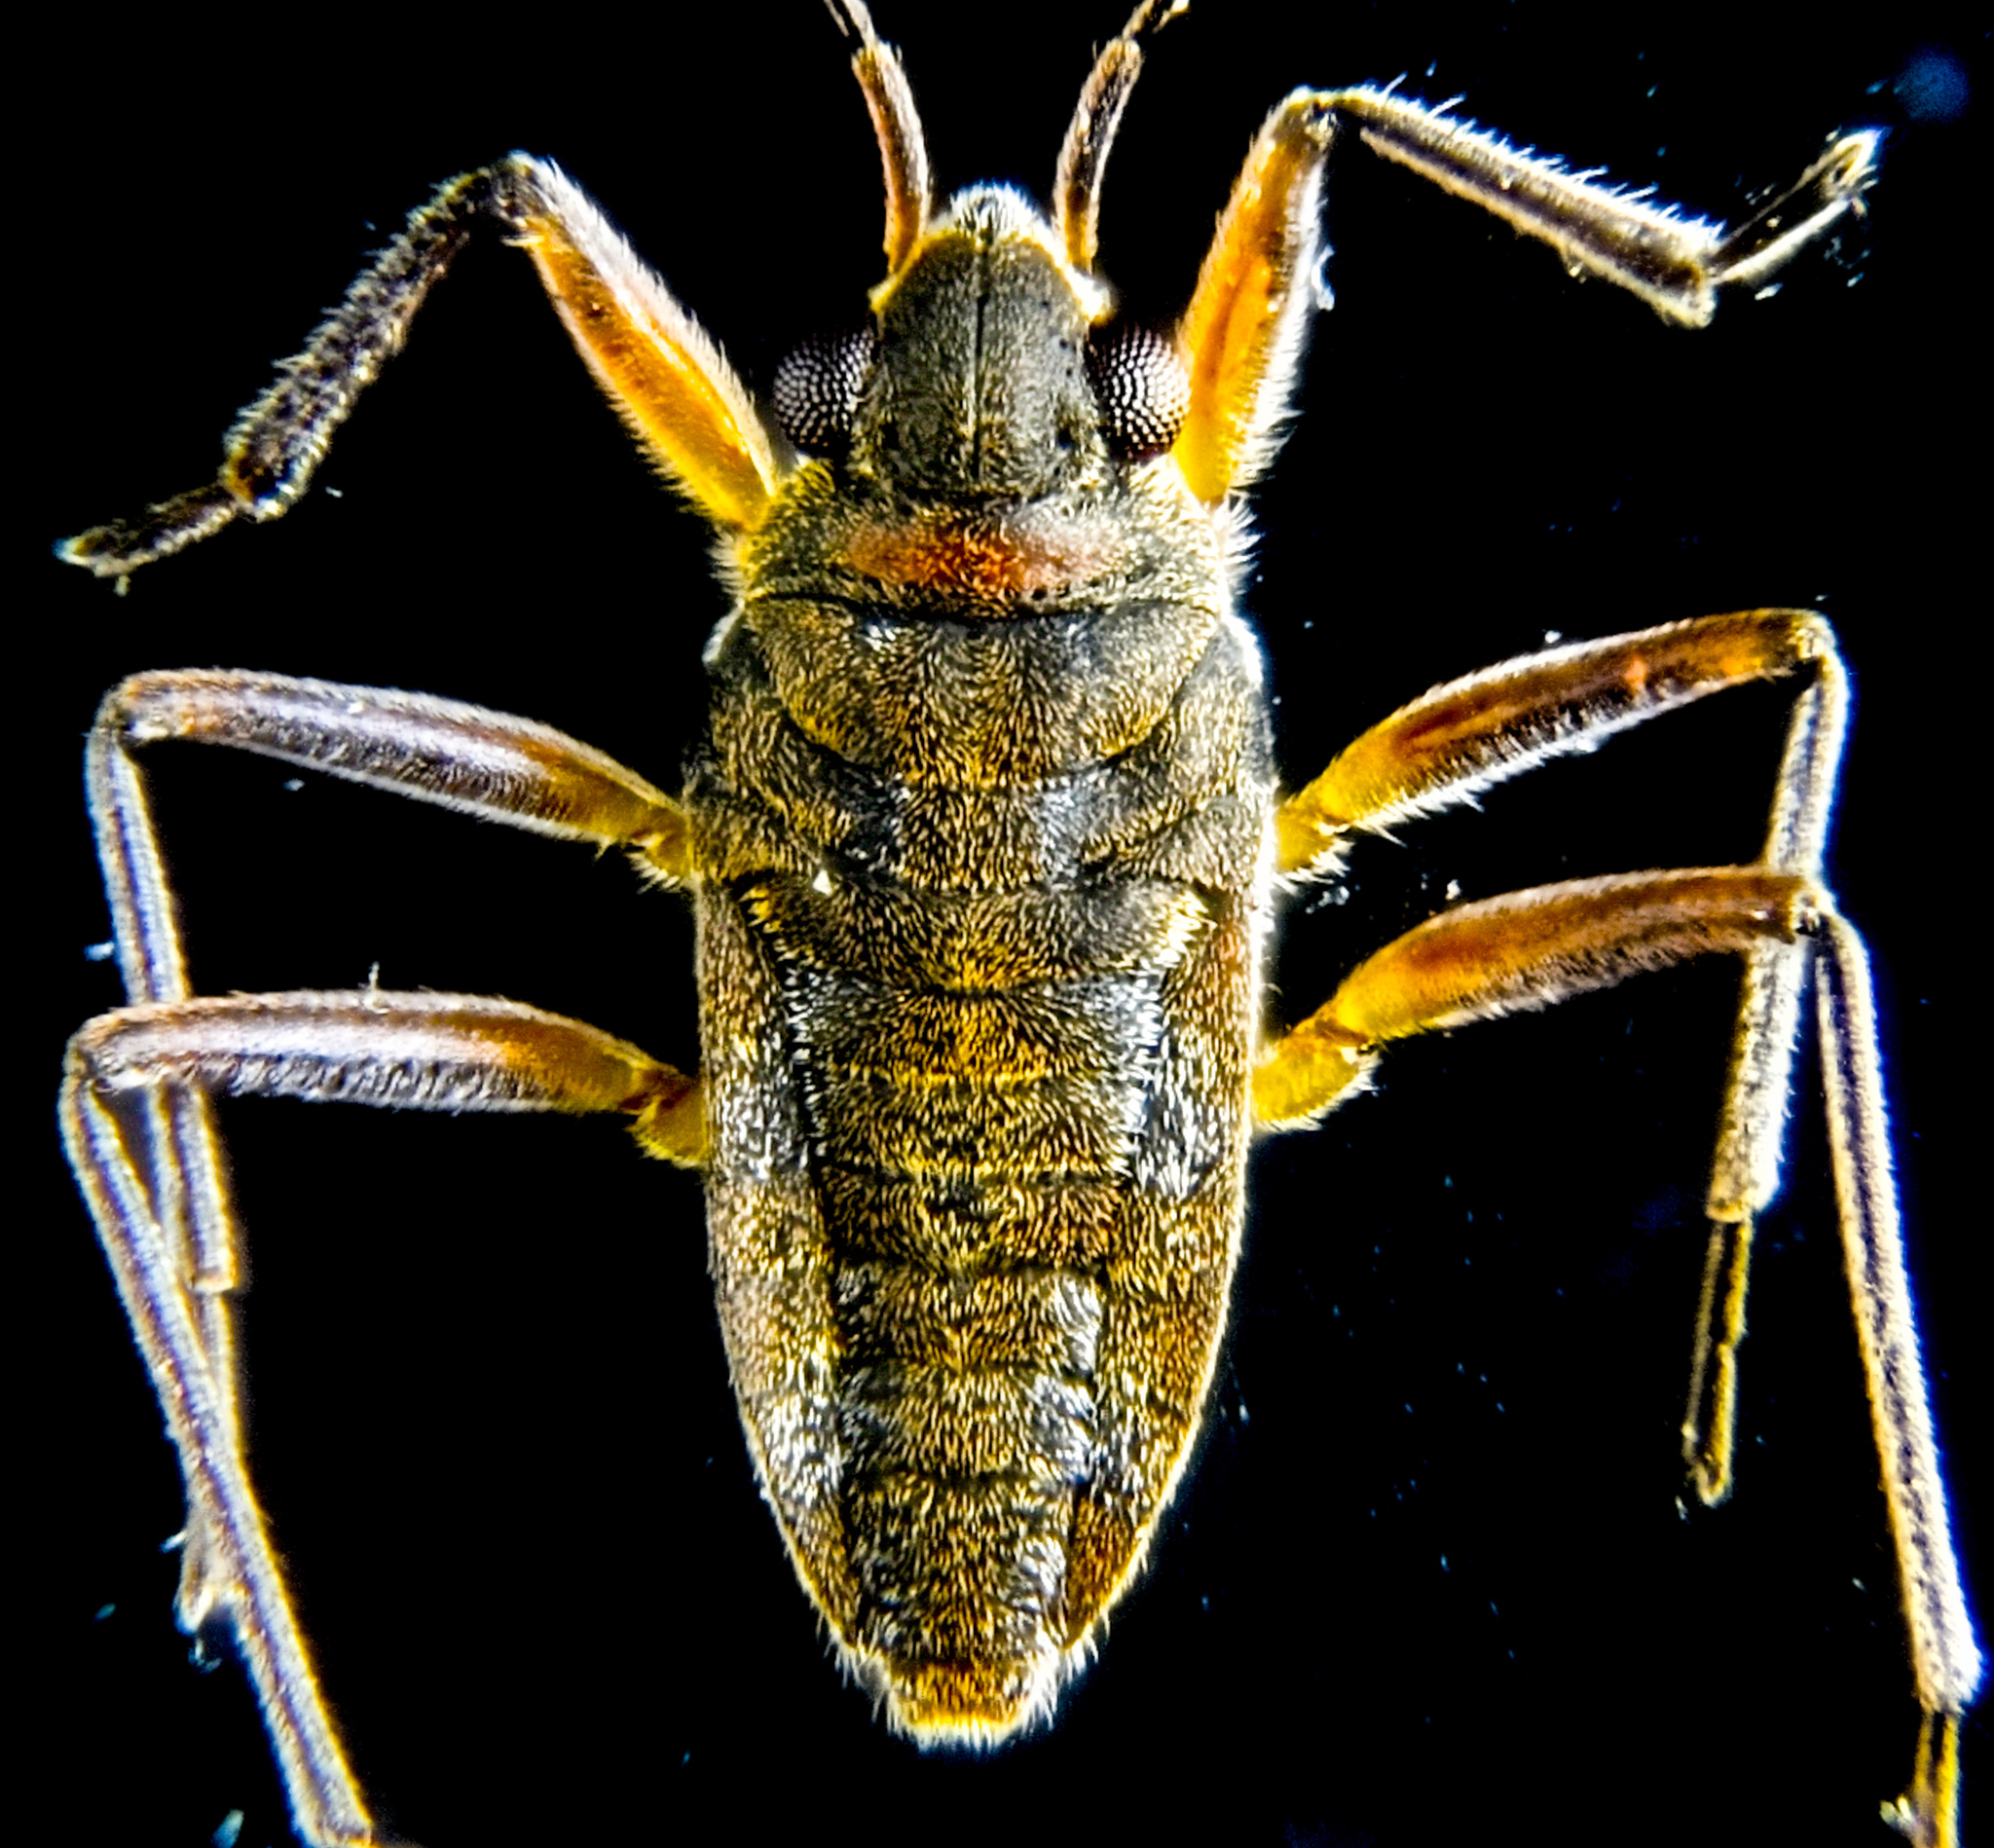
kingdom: Animalia
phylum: Arthropoda
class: Insecta
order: Hemiptera
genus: Kirkaldya
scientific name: Kirkaldya
